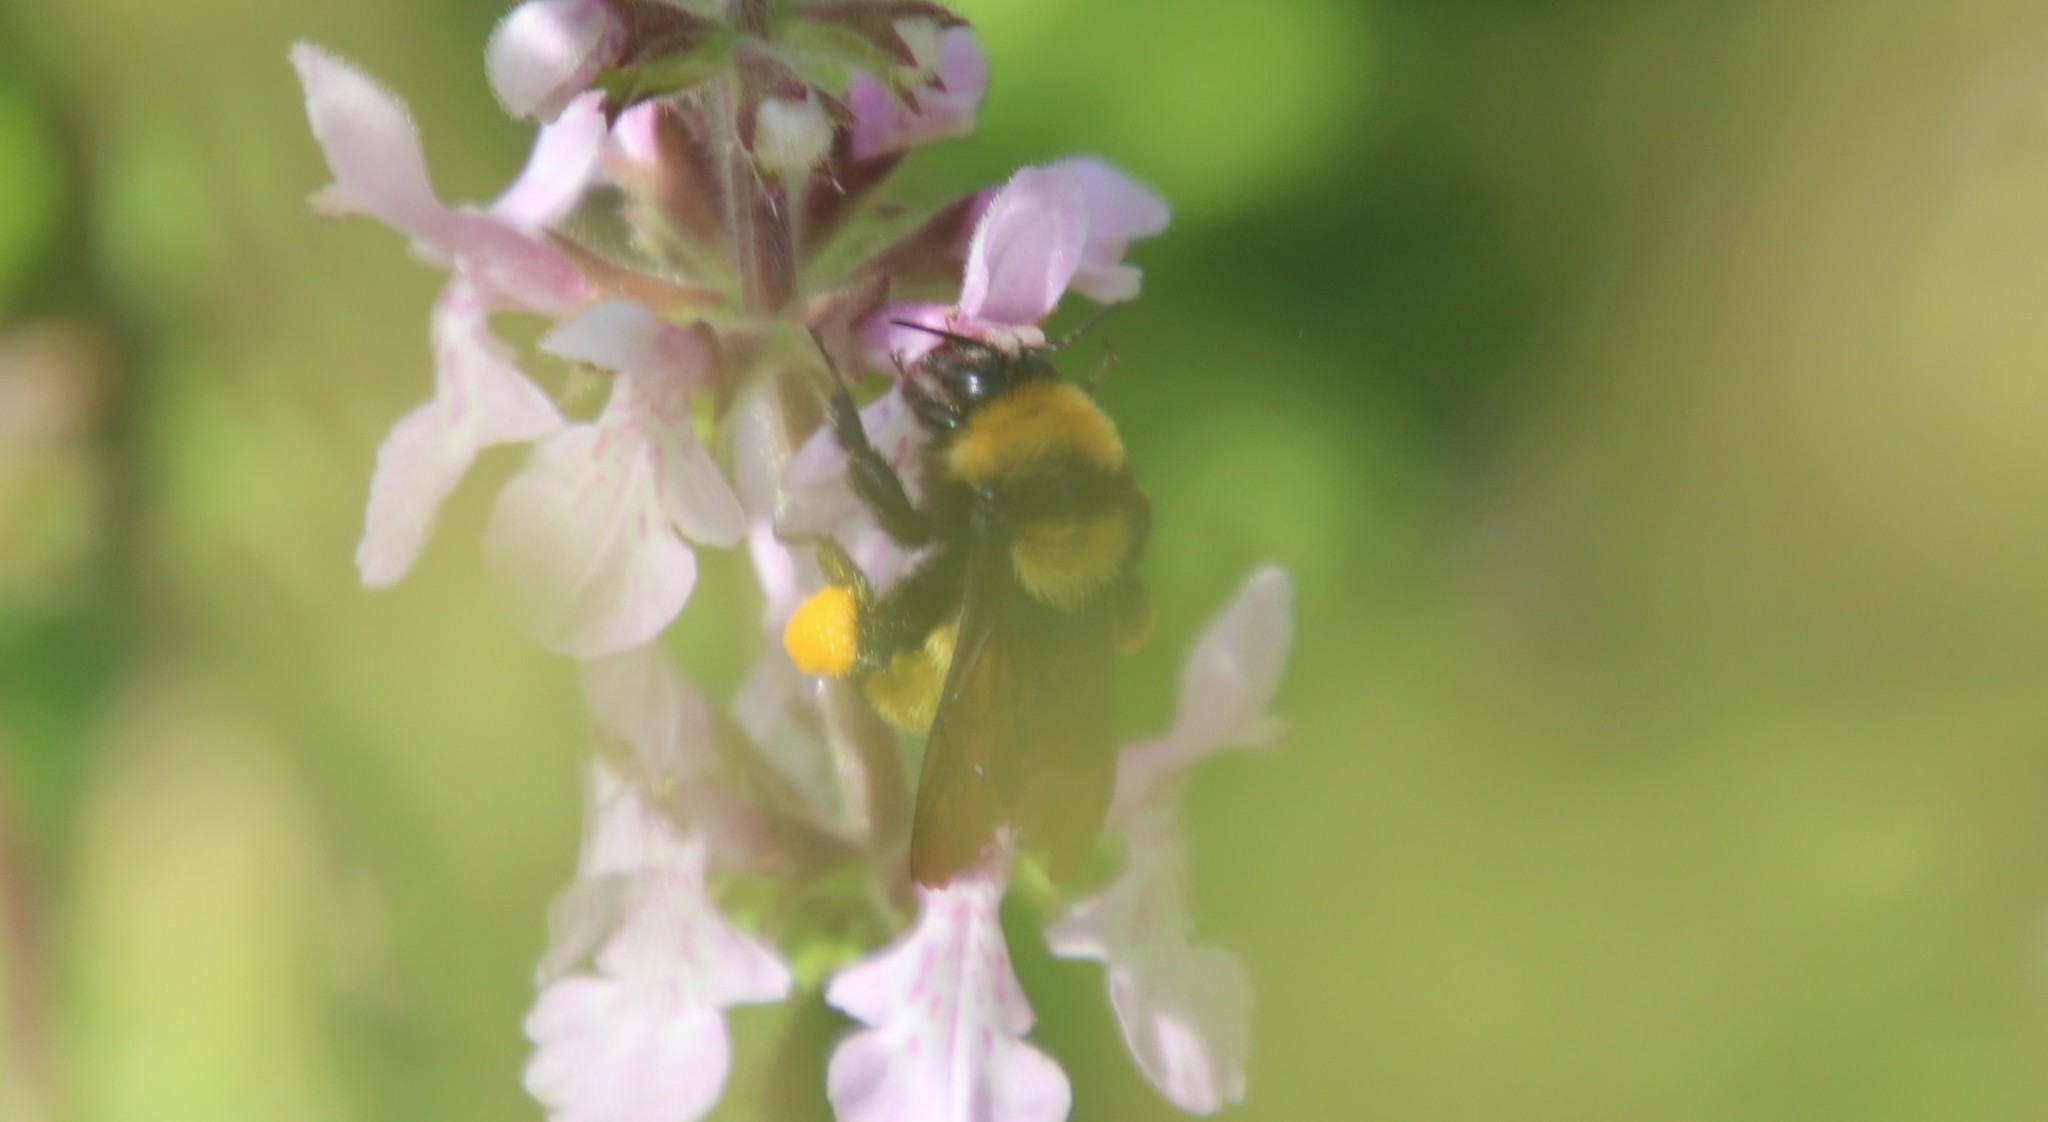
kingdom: Animalia
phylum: Arthropoda
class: Insecta
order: Hymenoptera
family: Apidae
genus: Bombus
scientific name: Bombus sonorus
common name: Sonoran bumble bee
